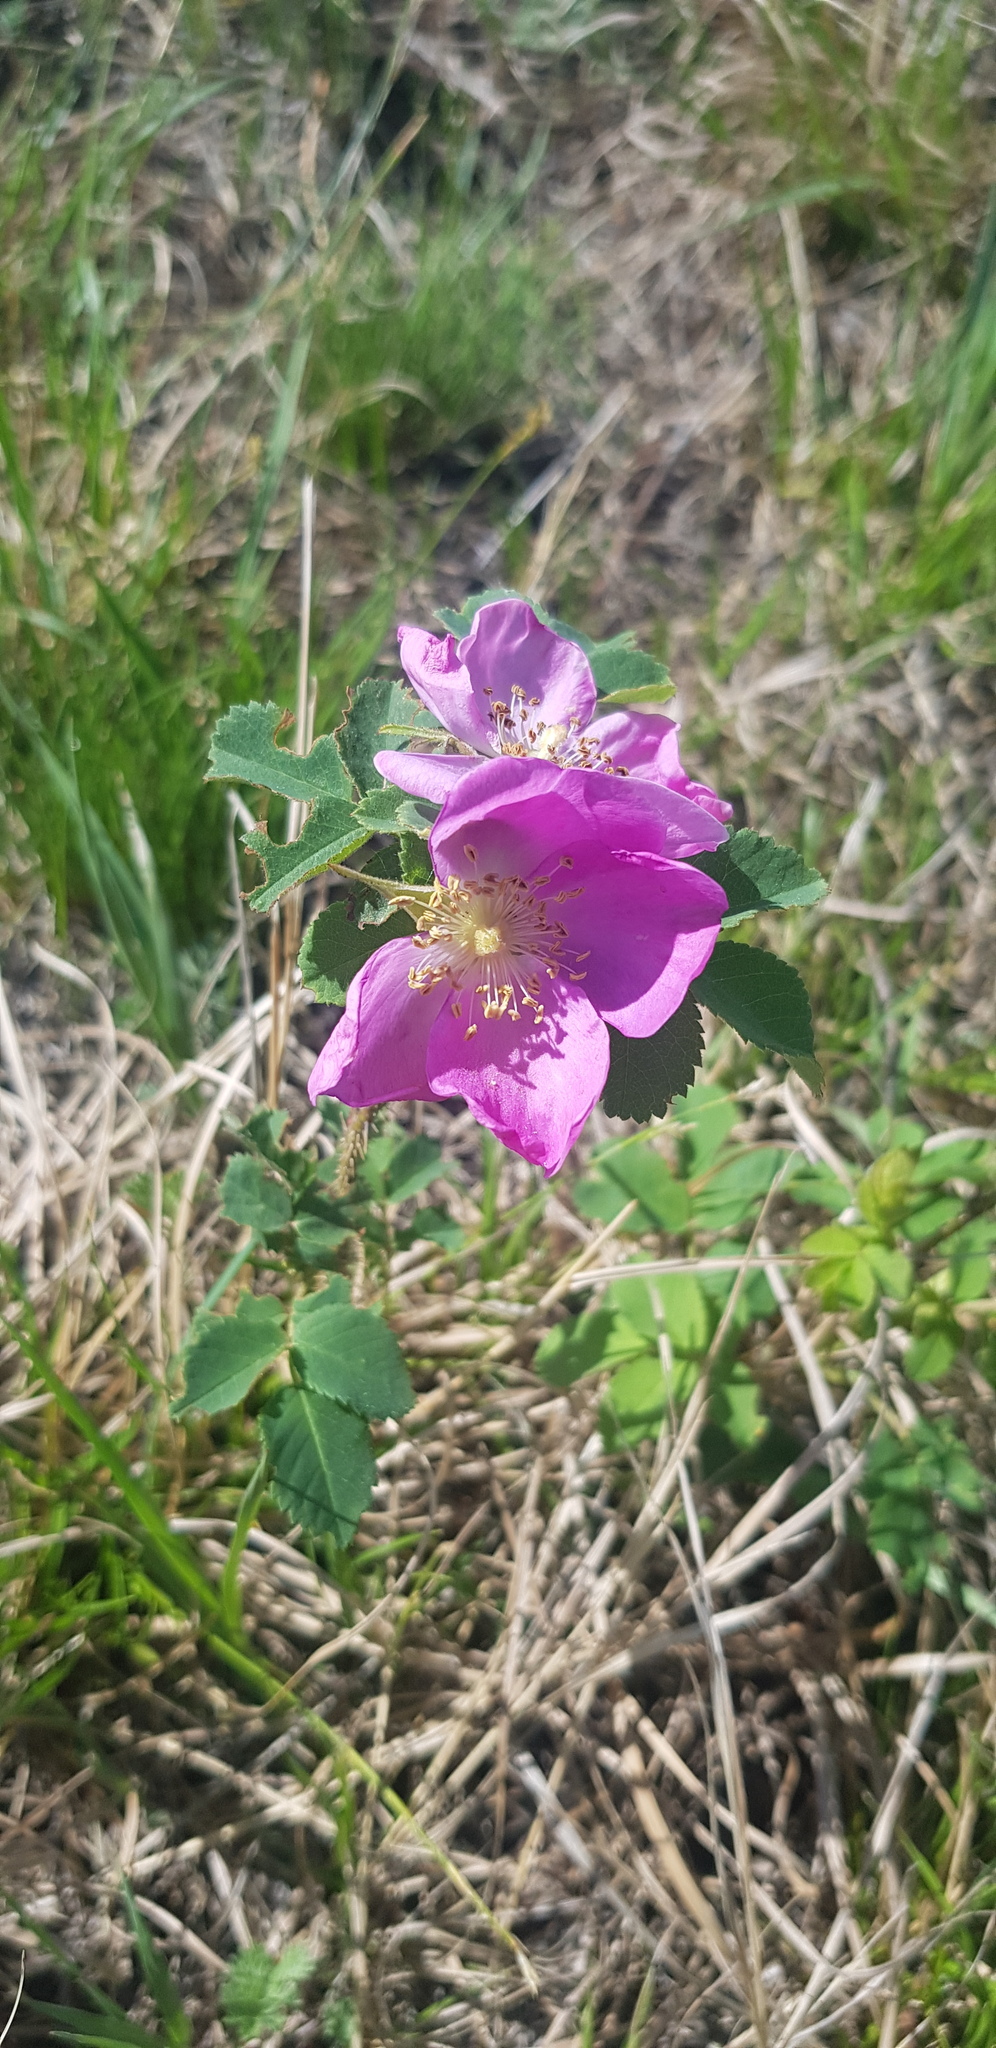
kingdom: Plantae
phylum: Tracheophyta
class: Magnoliopsida
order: Rosales
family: Rosaceae
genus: Rosa
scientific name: Rosa acicularis
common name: Prickly rose
